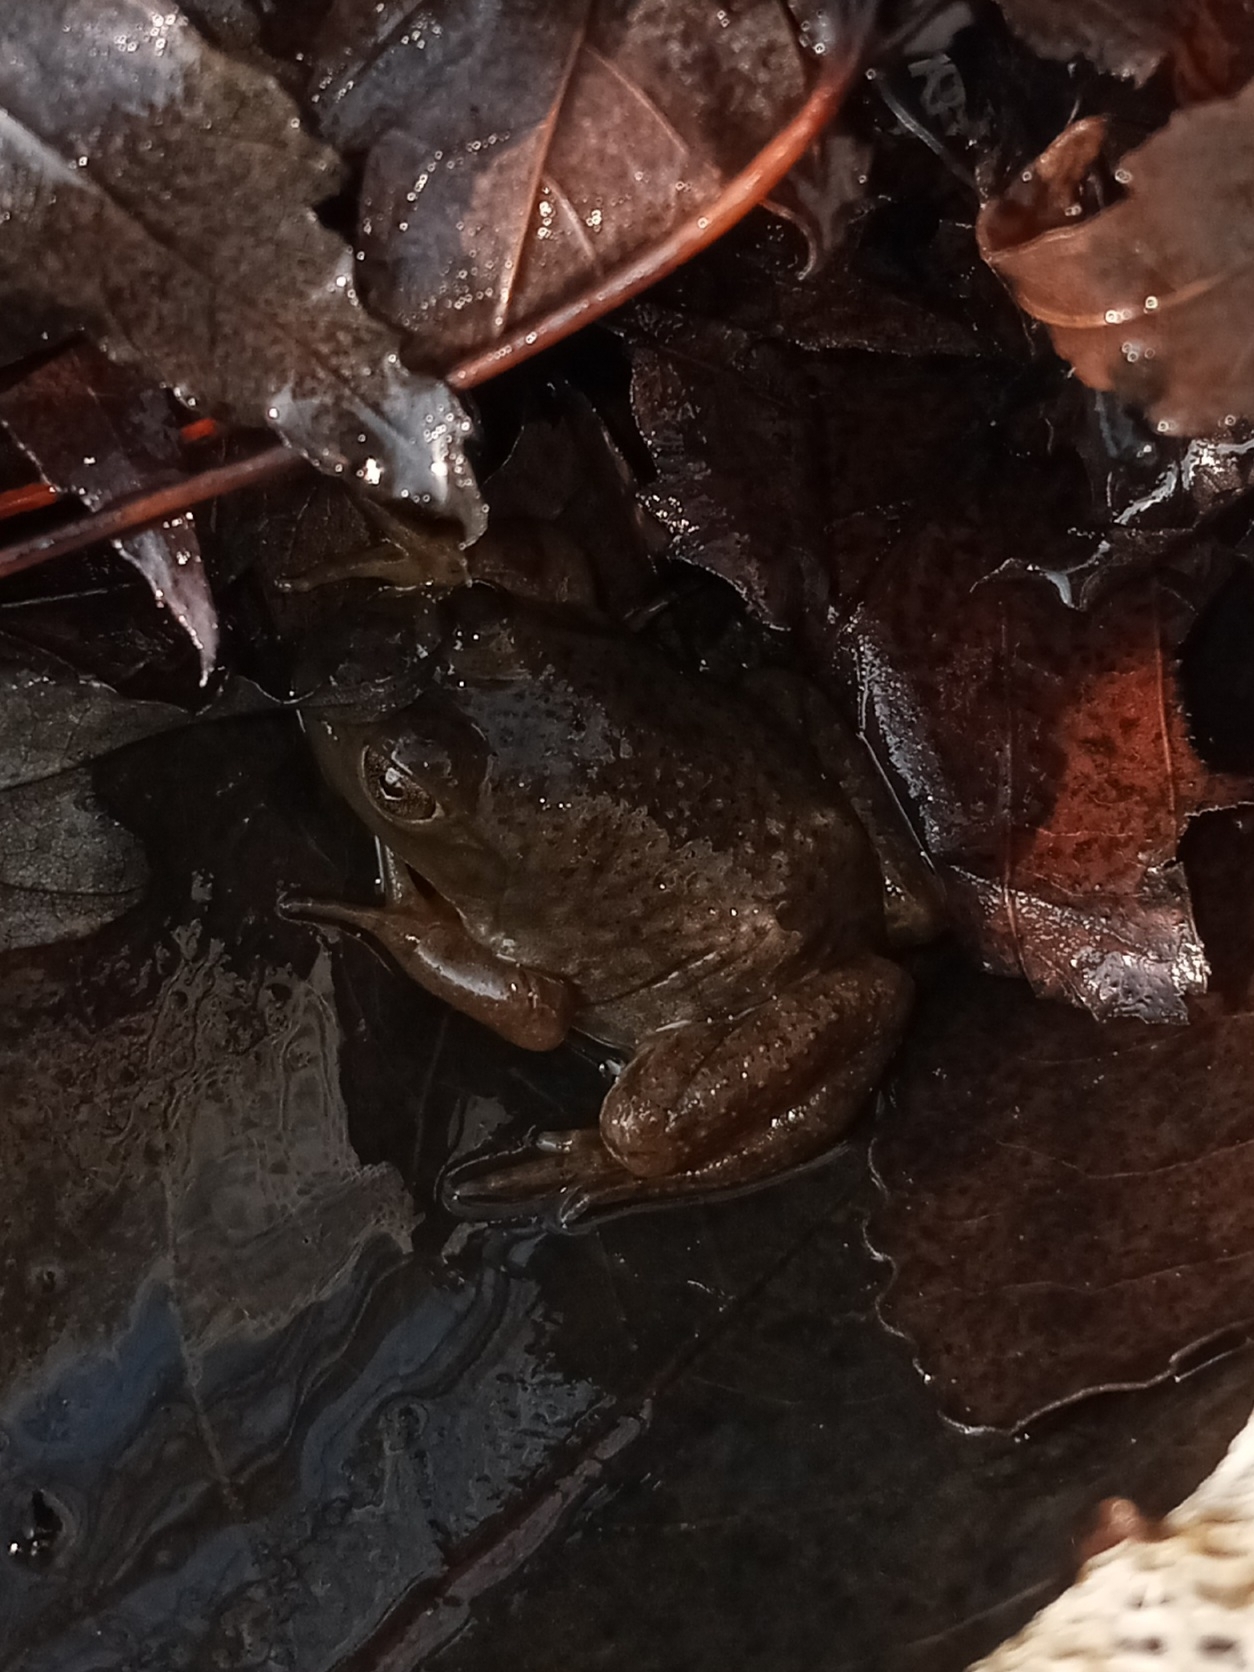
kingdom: Animalia
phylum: Chordata
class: Amphibia
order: Anura
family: Ranidae
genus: Lithobates
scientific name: Lithobates catesbeianus
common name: American bullfrog
